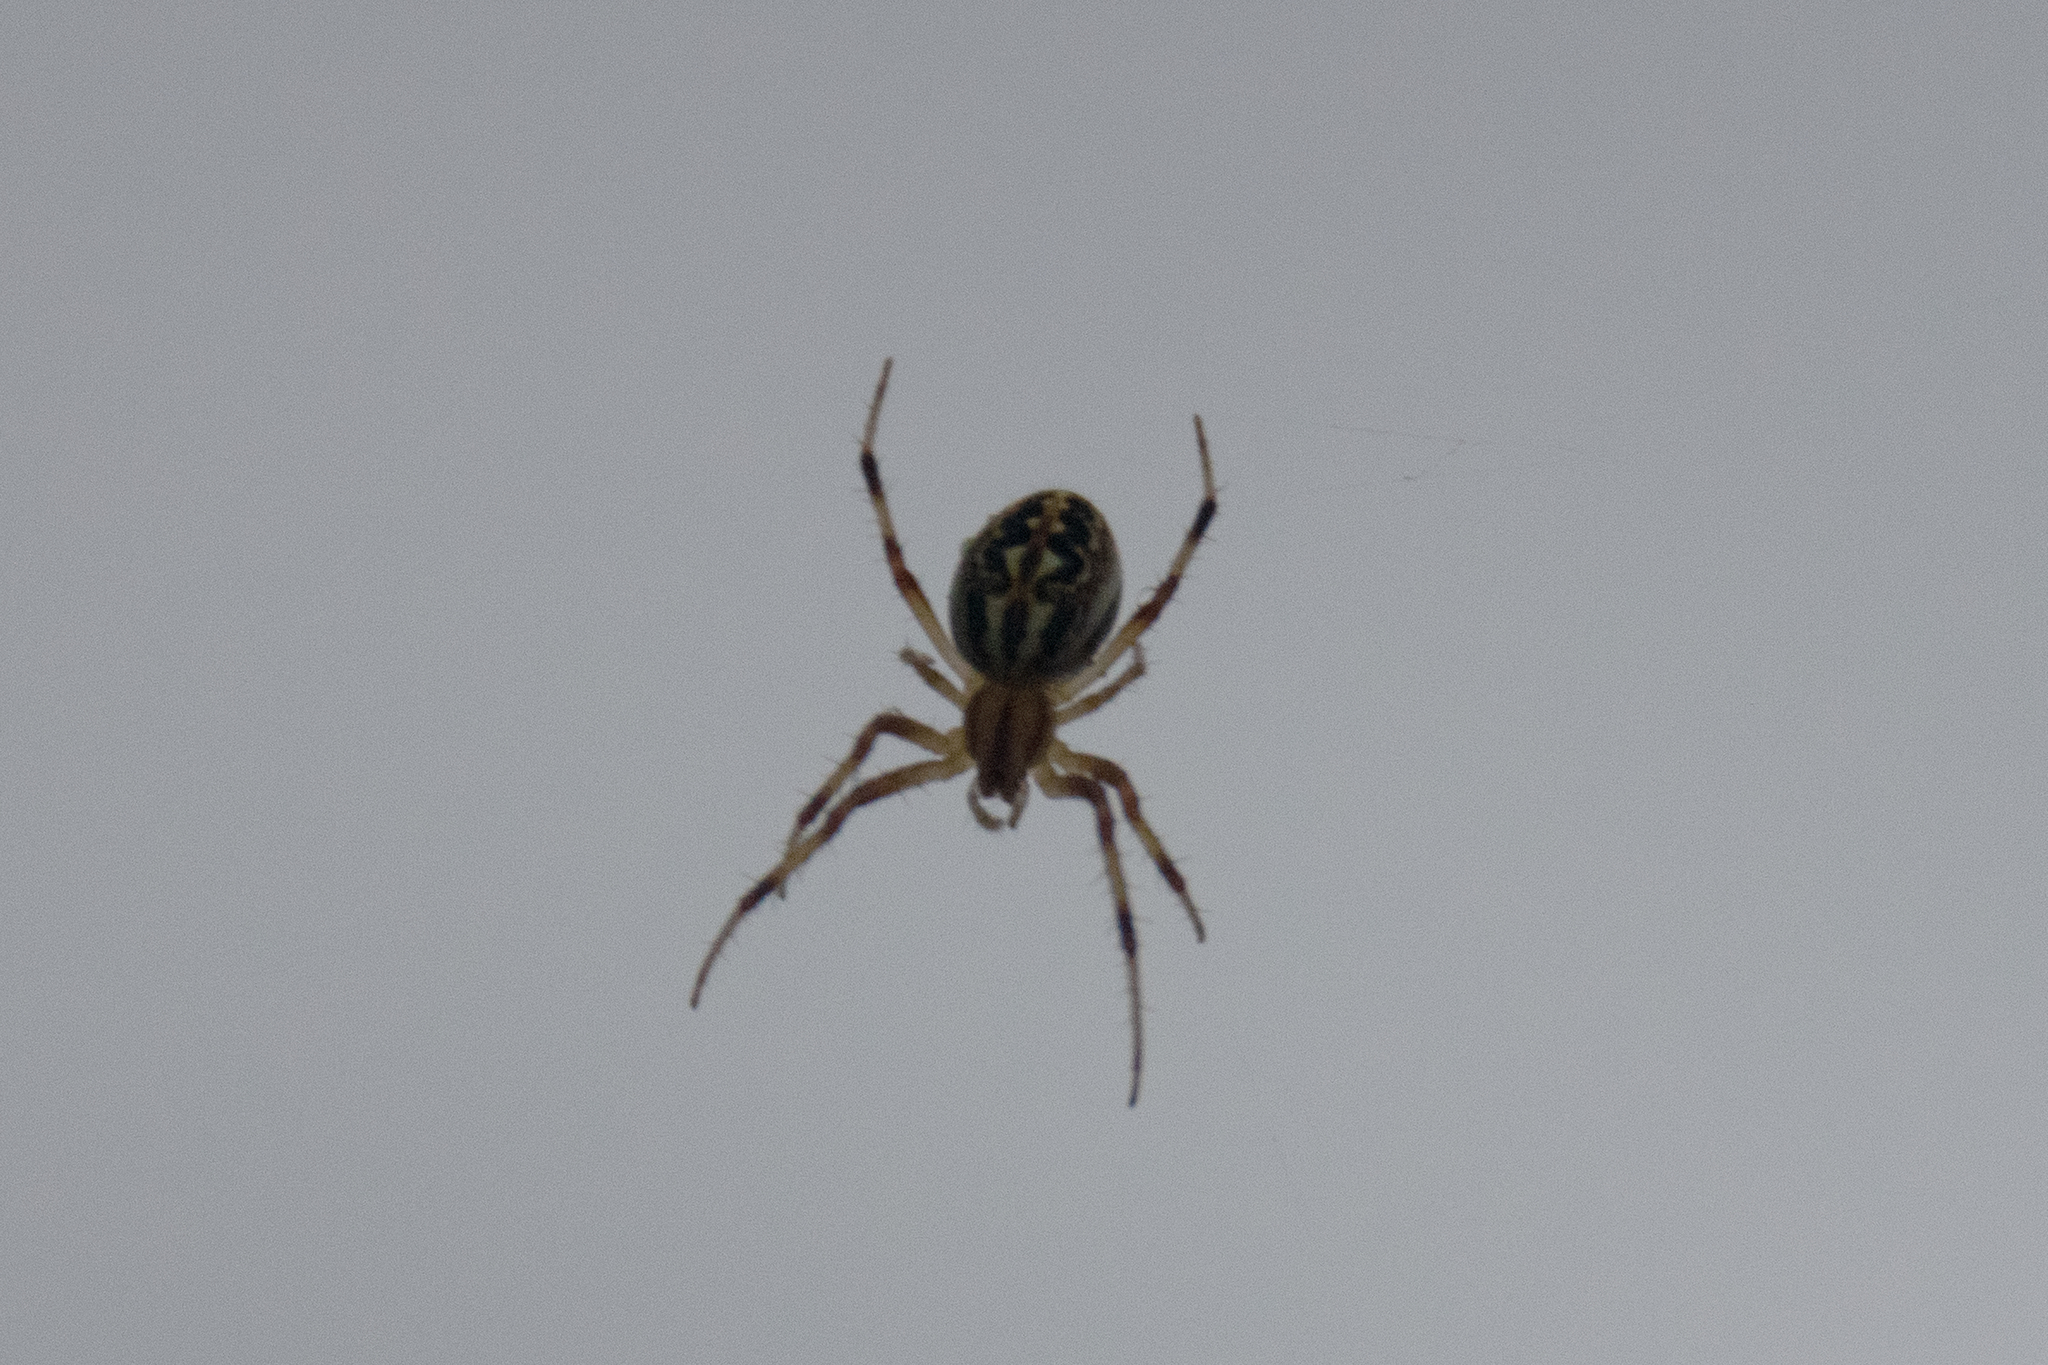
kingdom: Animalia
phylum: Arthropoda
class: Arachnida
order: Araneae
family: Araneidae
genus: Neoscona
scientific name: Neoscona oaxacensis
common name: Orb weavers
